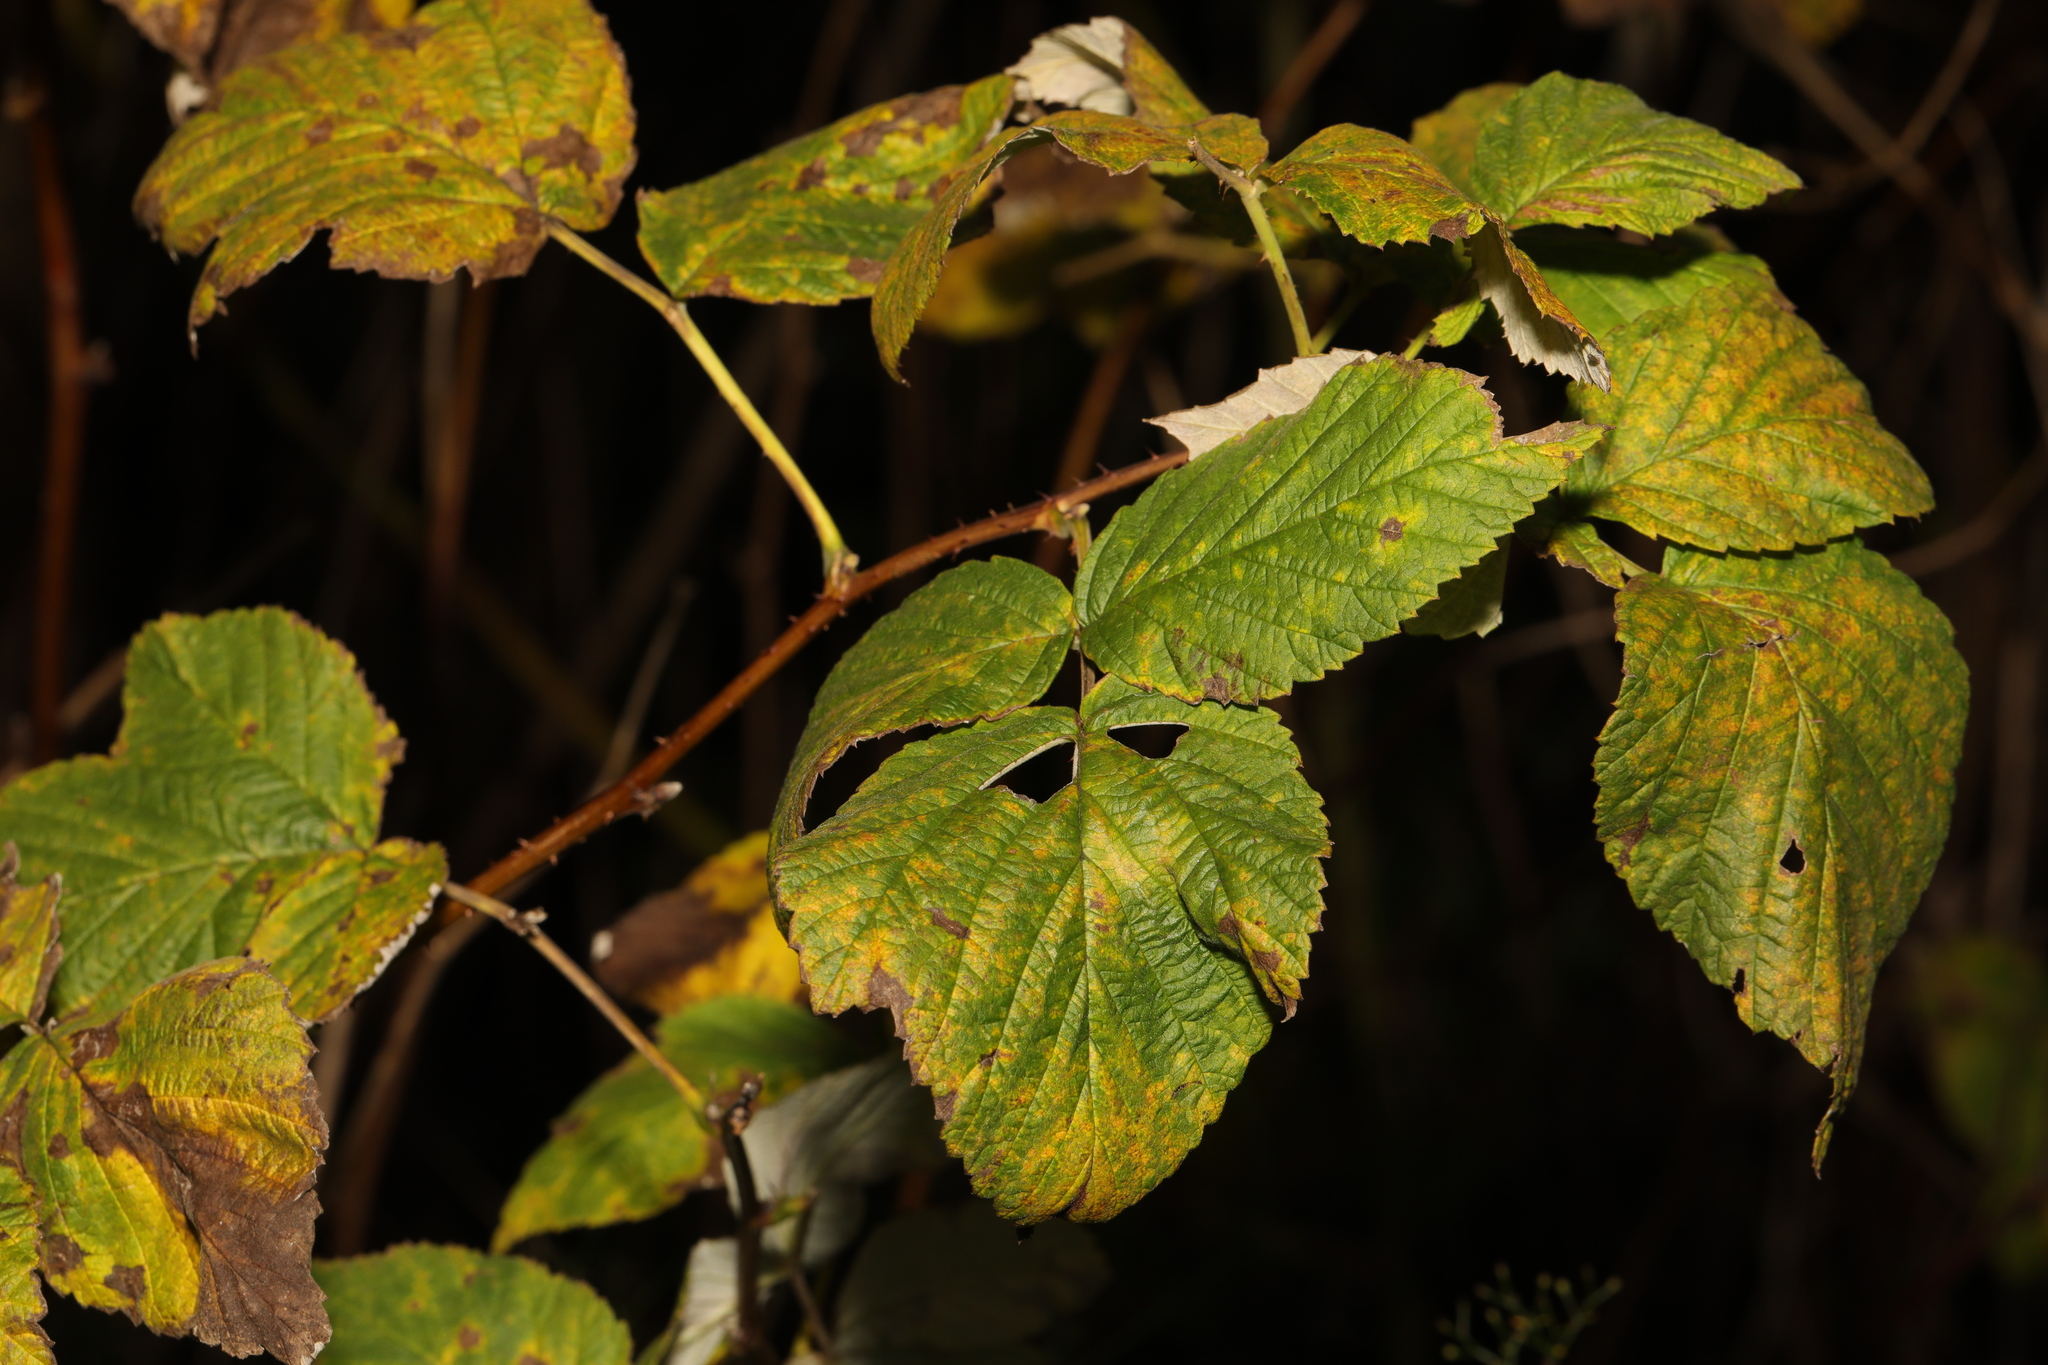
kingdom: Plantae
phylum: Tracheophyta
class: Magnoliopsida
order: Rosales
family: Rosaceae
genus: Rubus
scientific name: Rubus idaeus
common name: Raspberry
